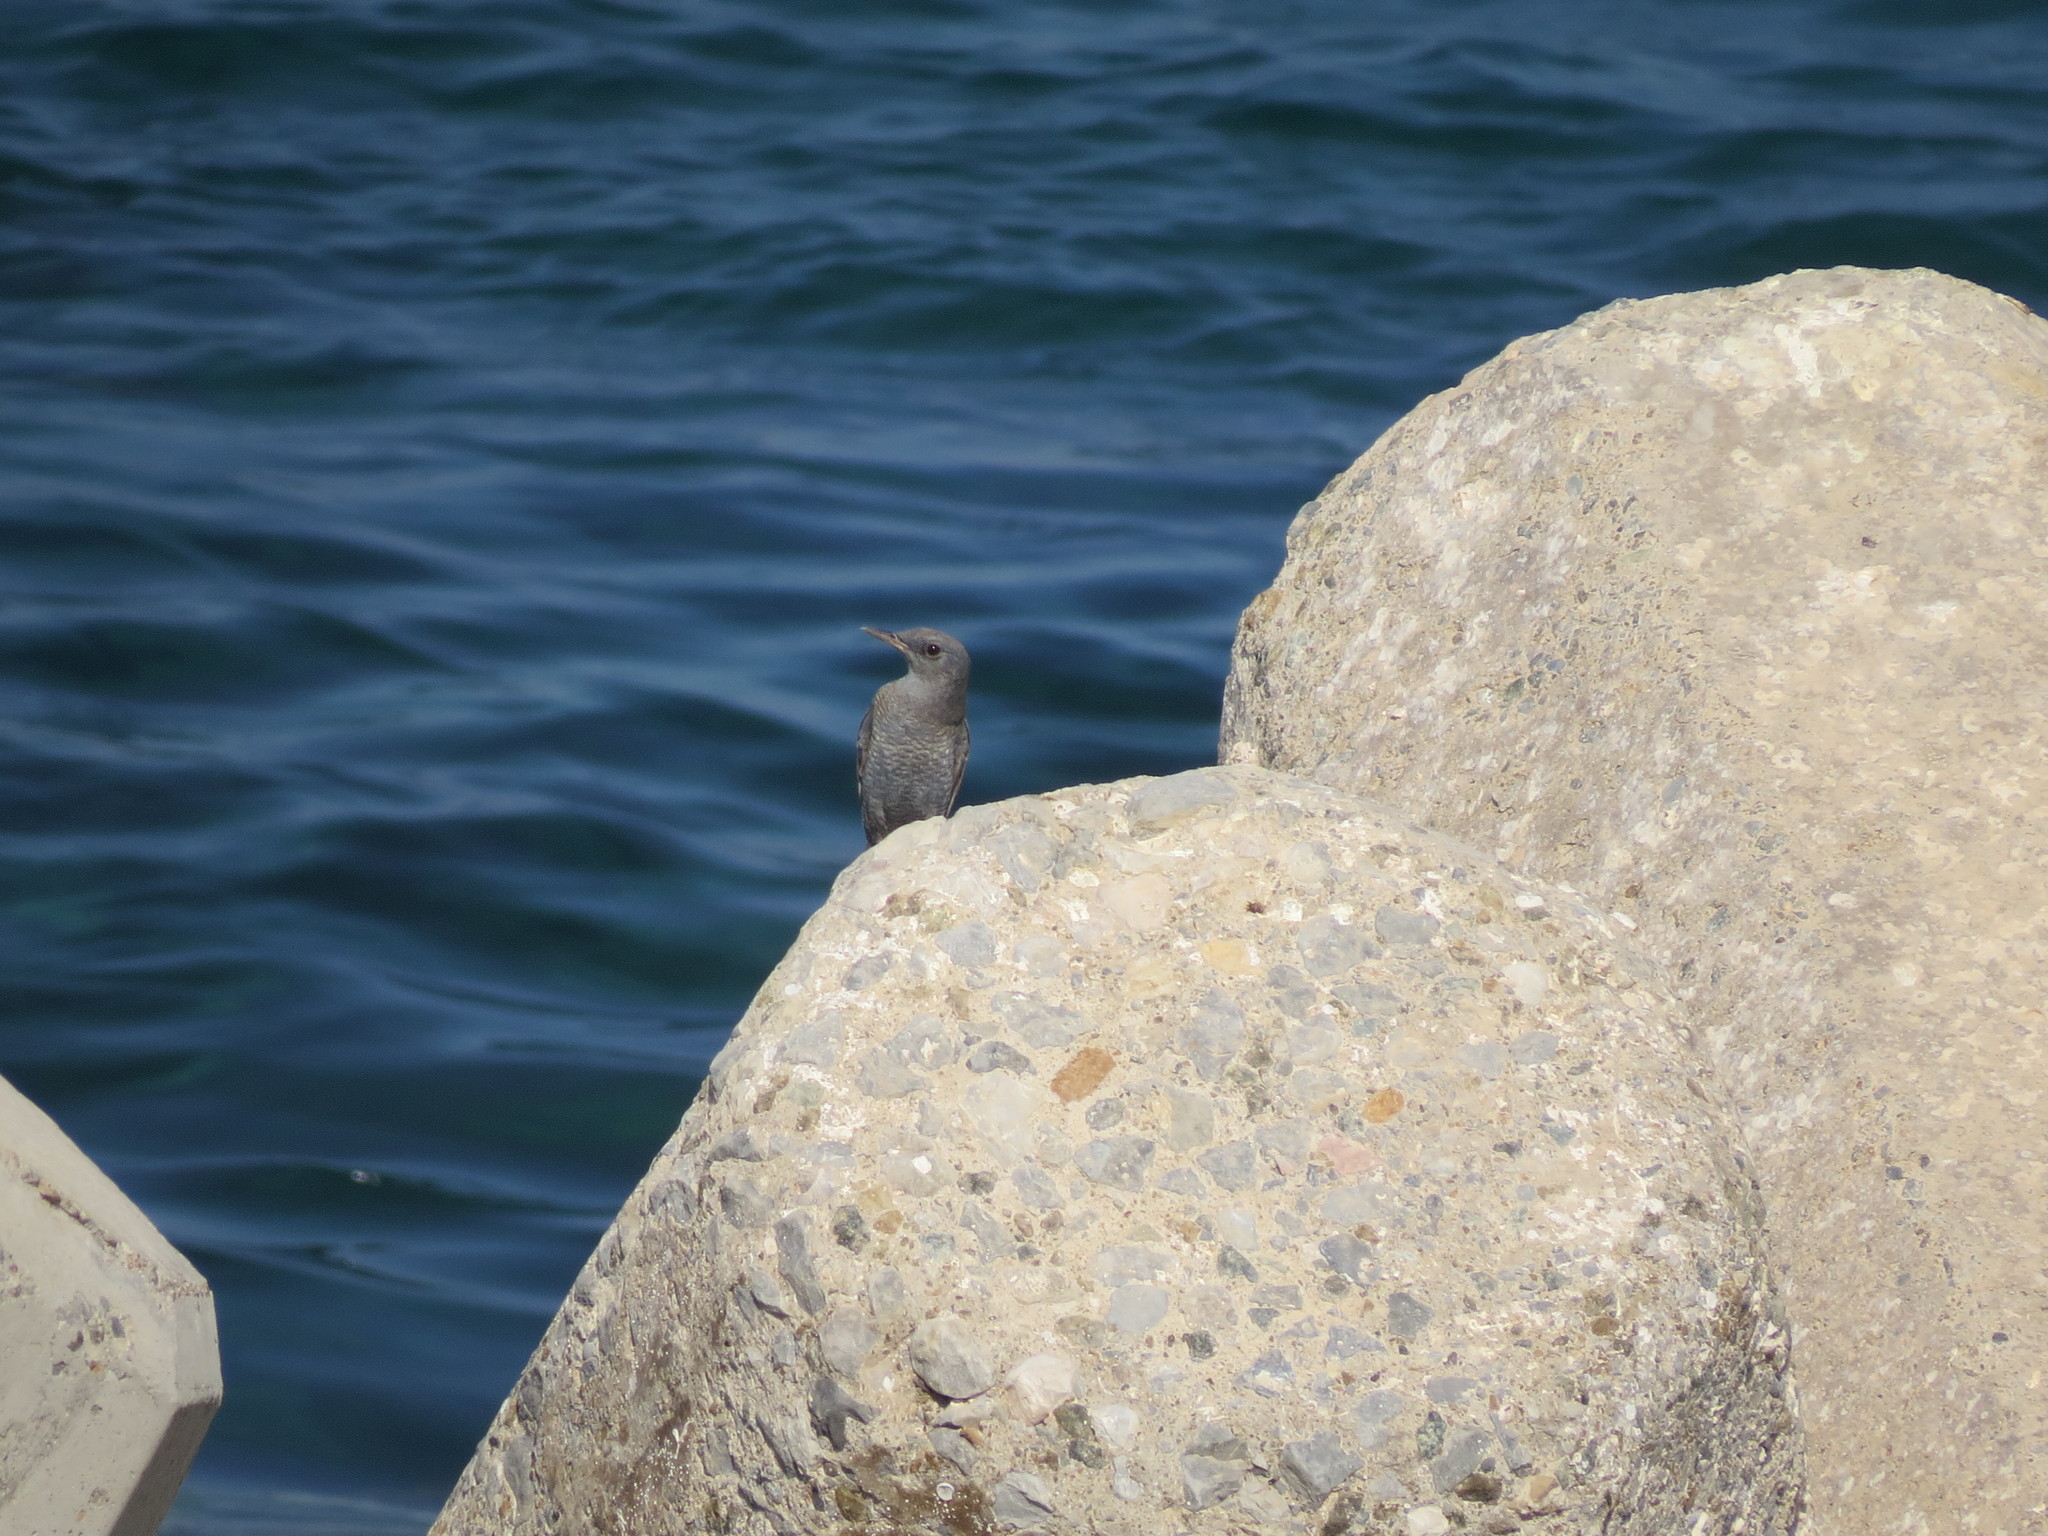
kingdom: Animalia
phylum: Chordata
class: Aves
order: Passeriformes
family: Muscicapidae
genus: Monticola
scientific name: Monticola solitarius
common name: Blue rock thrush
